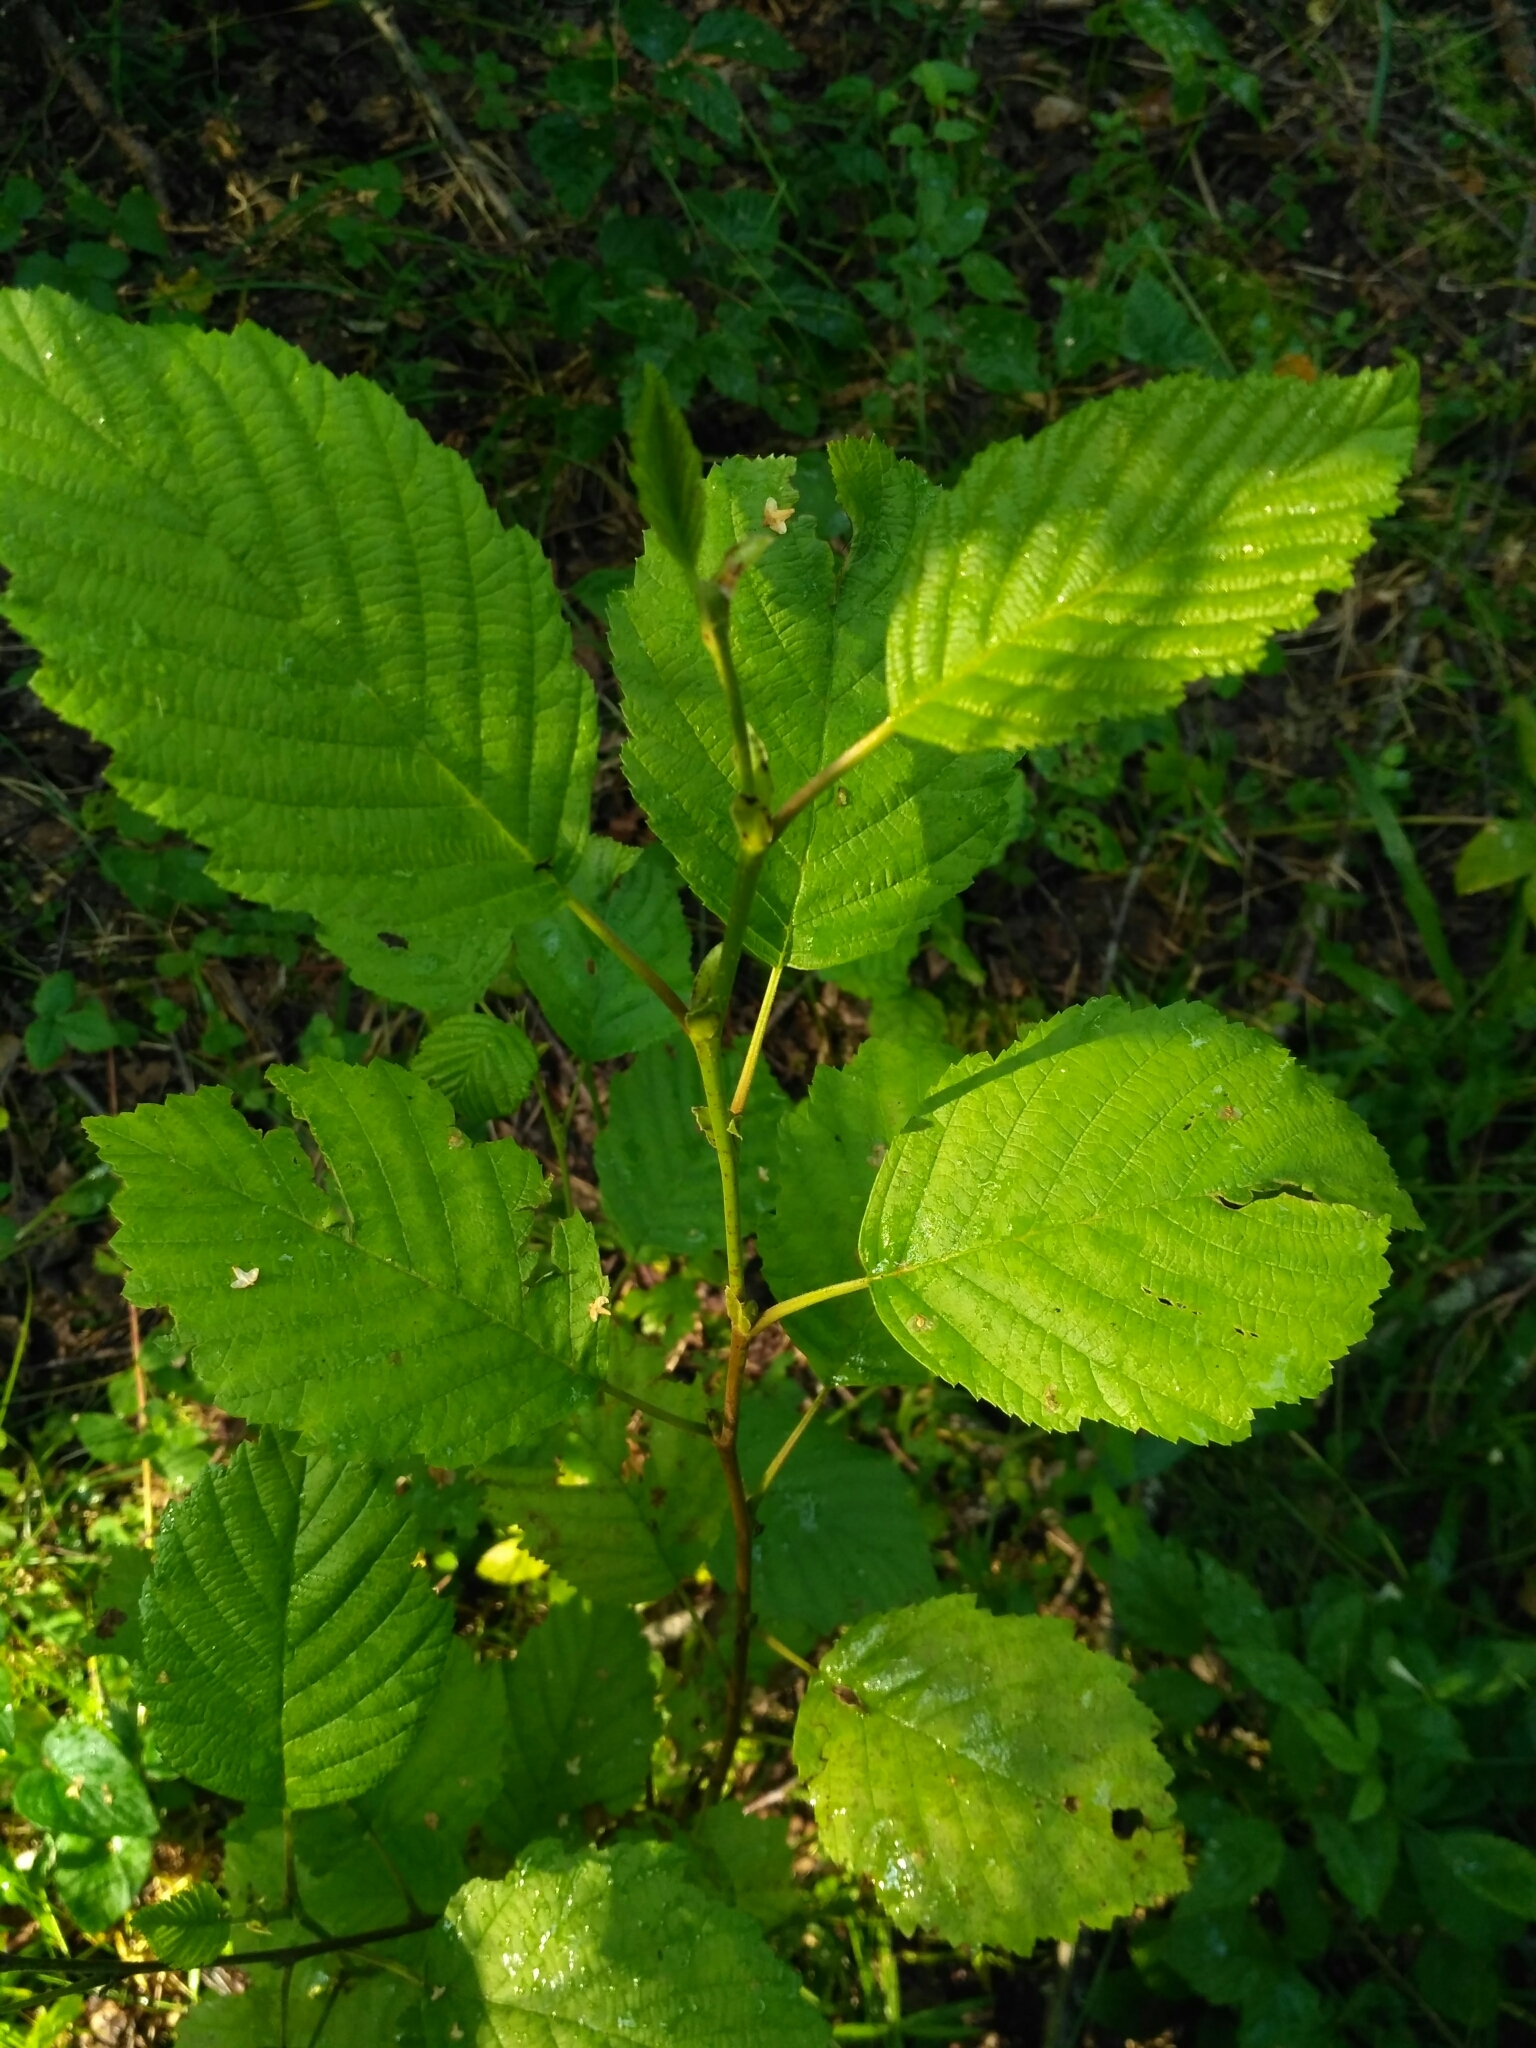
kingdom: Plantae
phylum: Tracheophyta
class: Magnoliopsida
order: Fagales
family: Betulaceae
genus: Alnus
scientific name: Alnus incana
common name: Grey alder
